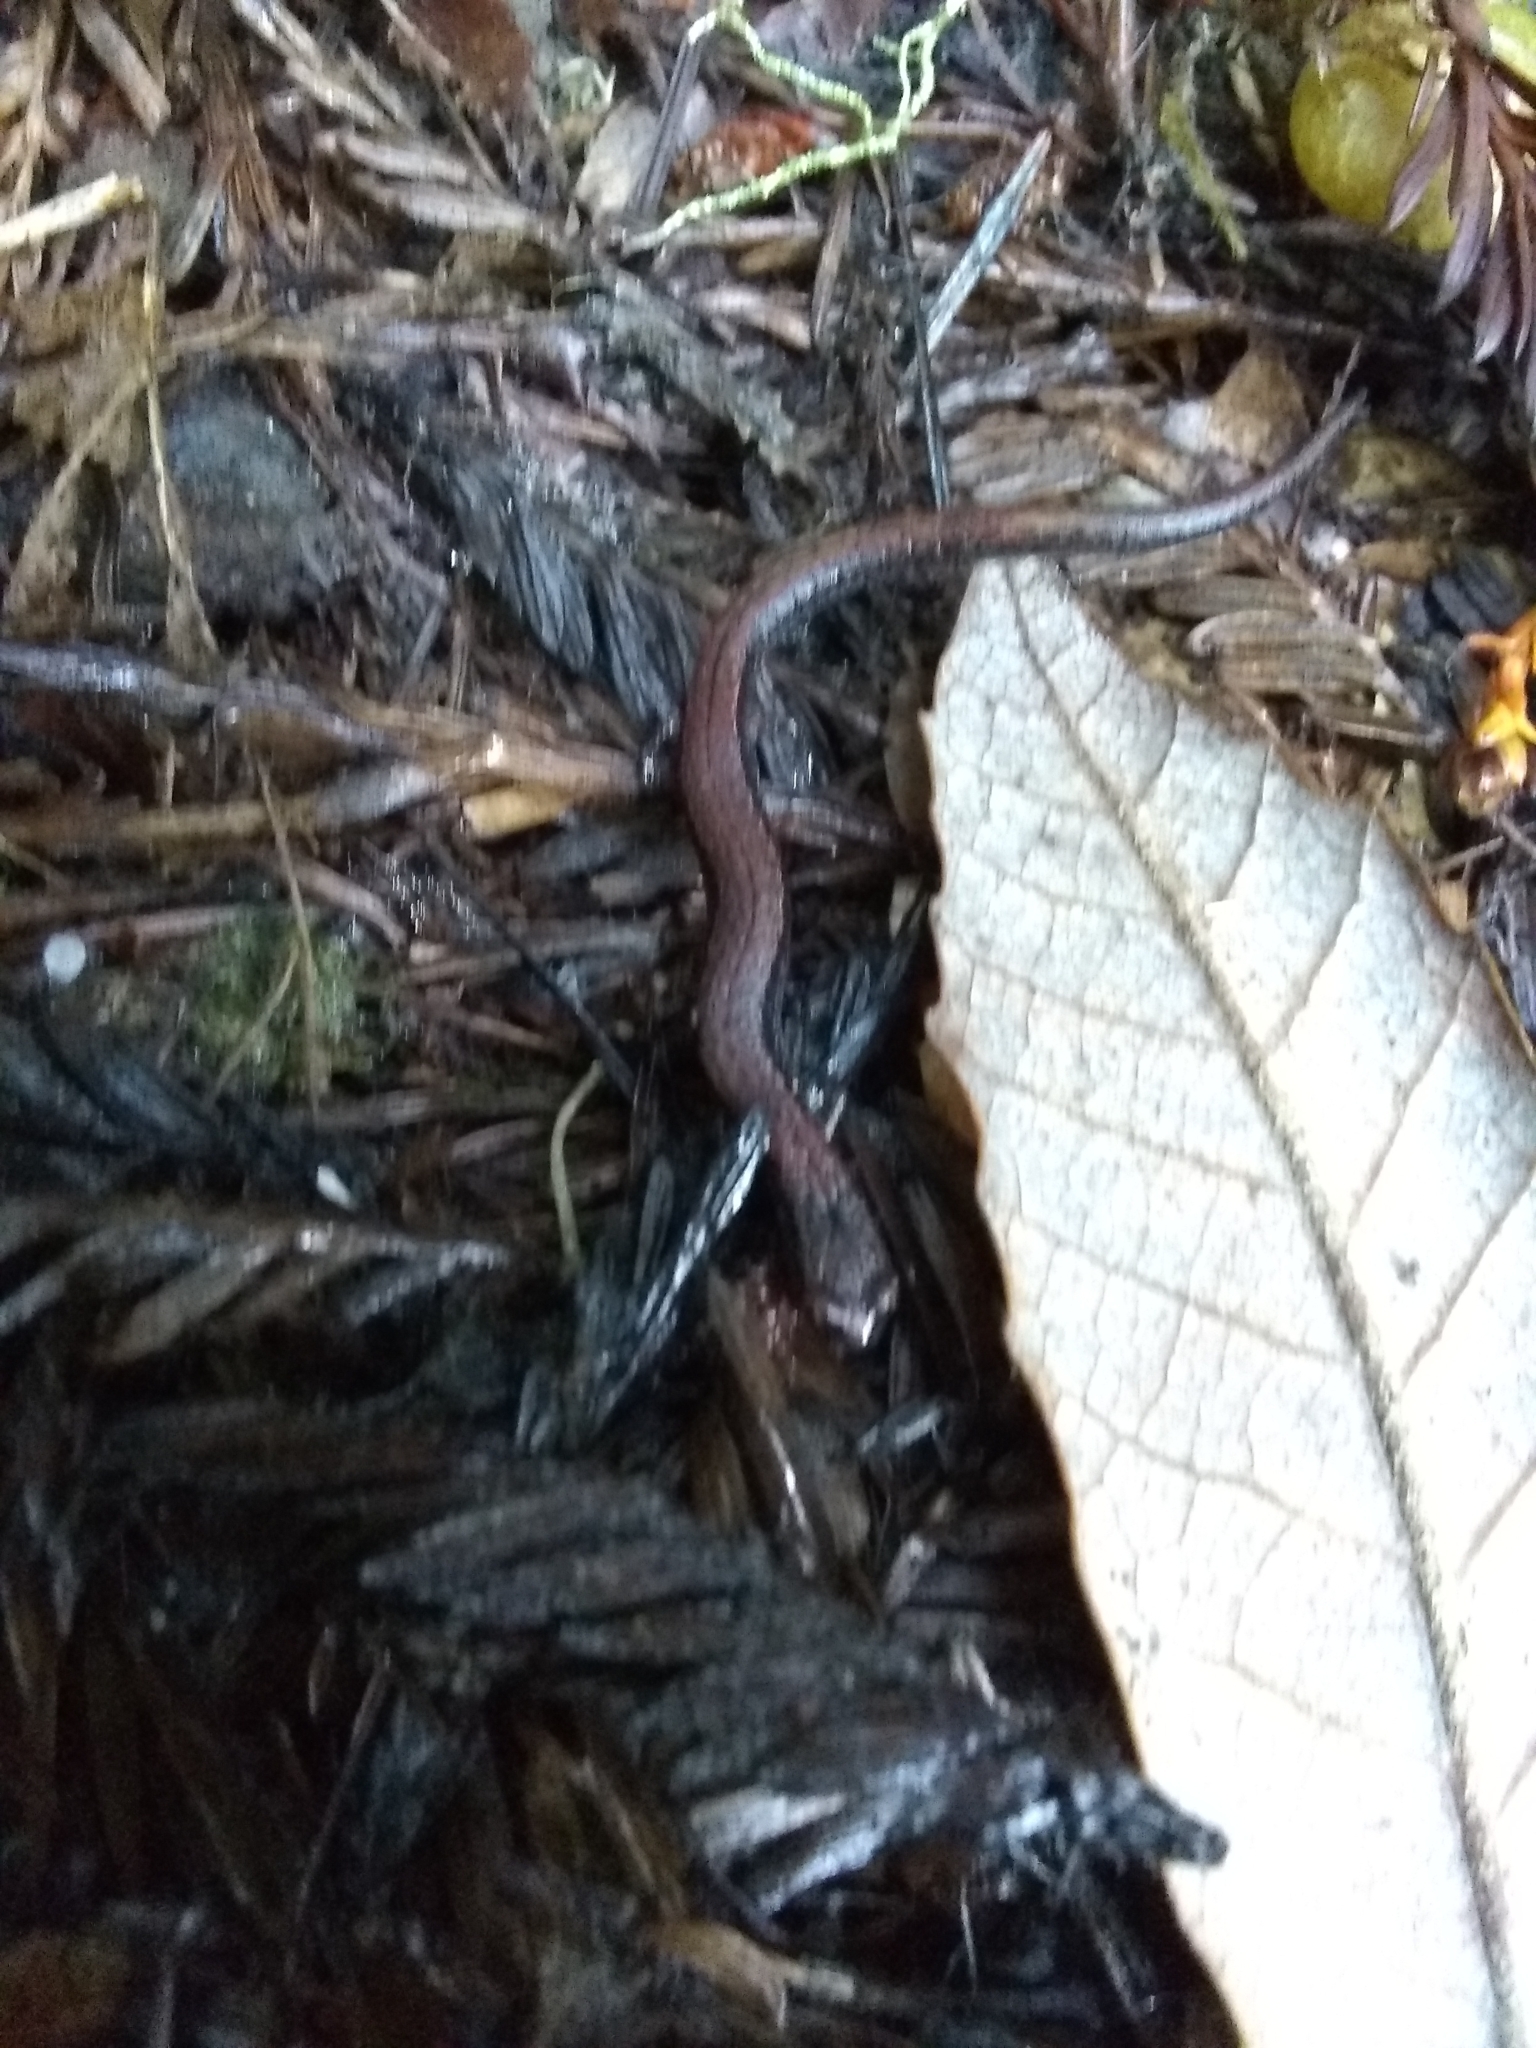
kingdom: Animalia
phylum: Chordata
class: Amphibia
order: Caudata
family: Plethodontidae
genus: Batrachoseps
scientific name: Batrachoseps attenuatus
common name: California slender salamander
